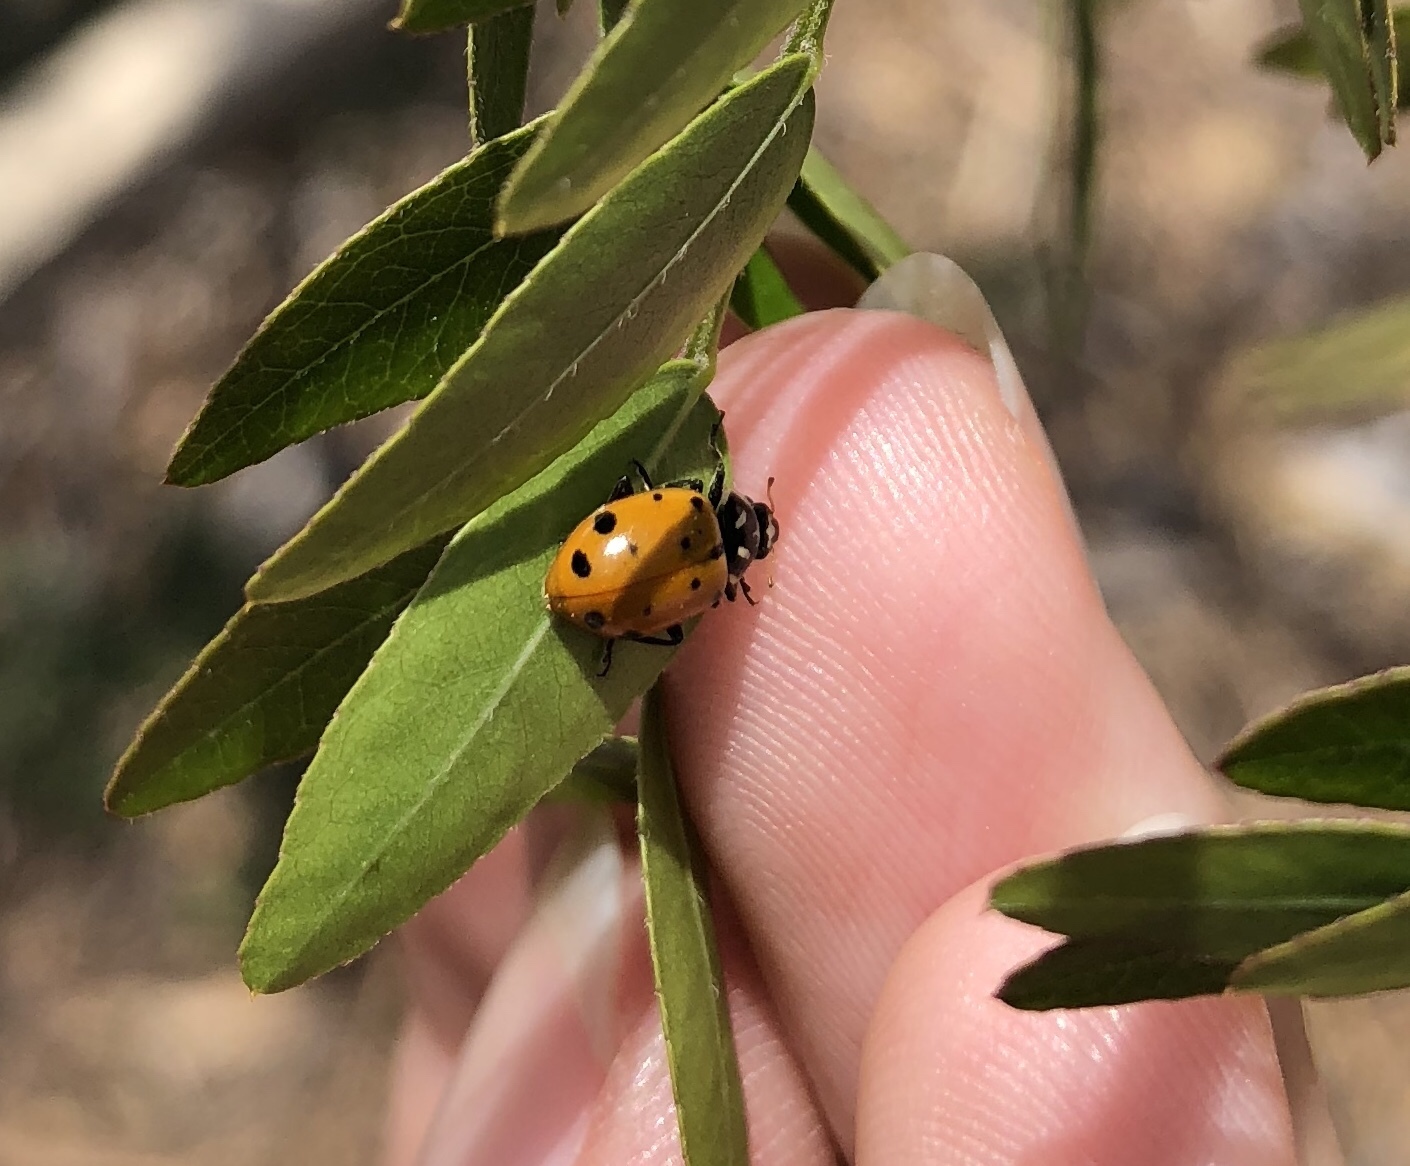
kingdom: Animalia
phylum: Arthropoda
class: Insecta
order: Coleoptera
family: Coccinellidae
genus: Hippodamia
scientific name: Hippodamia convergens
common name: Convergent lady beetle
